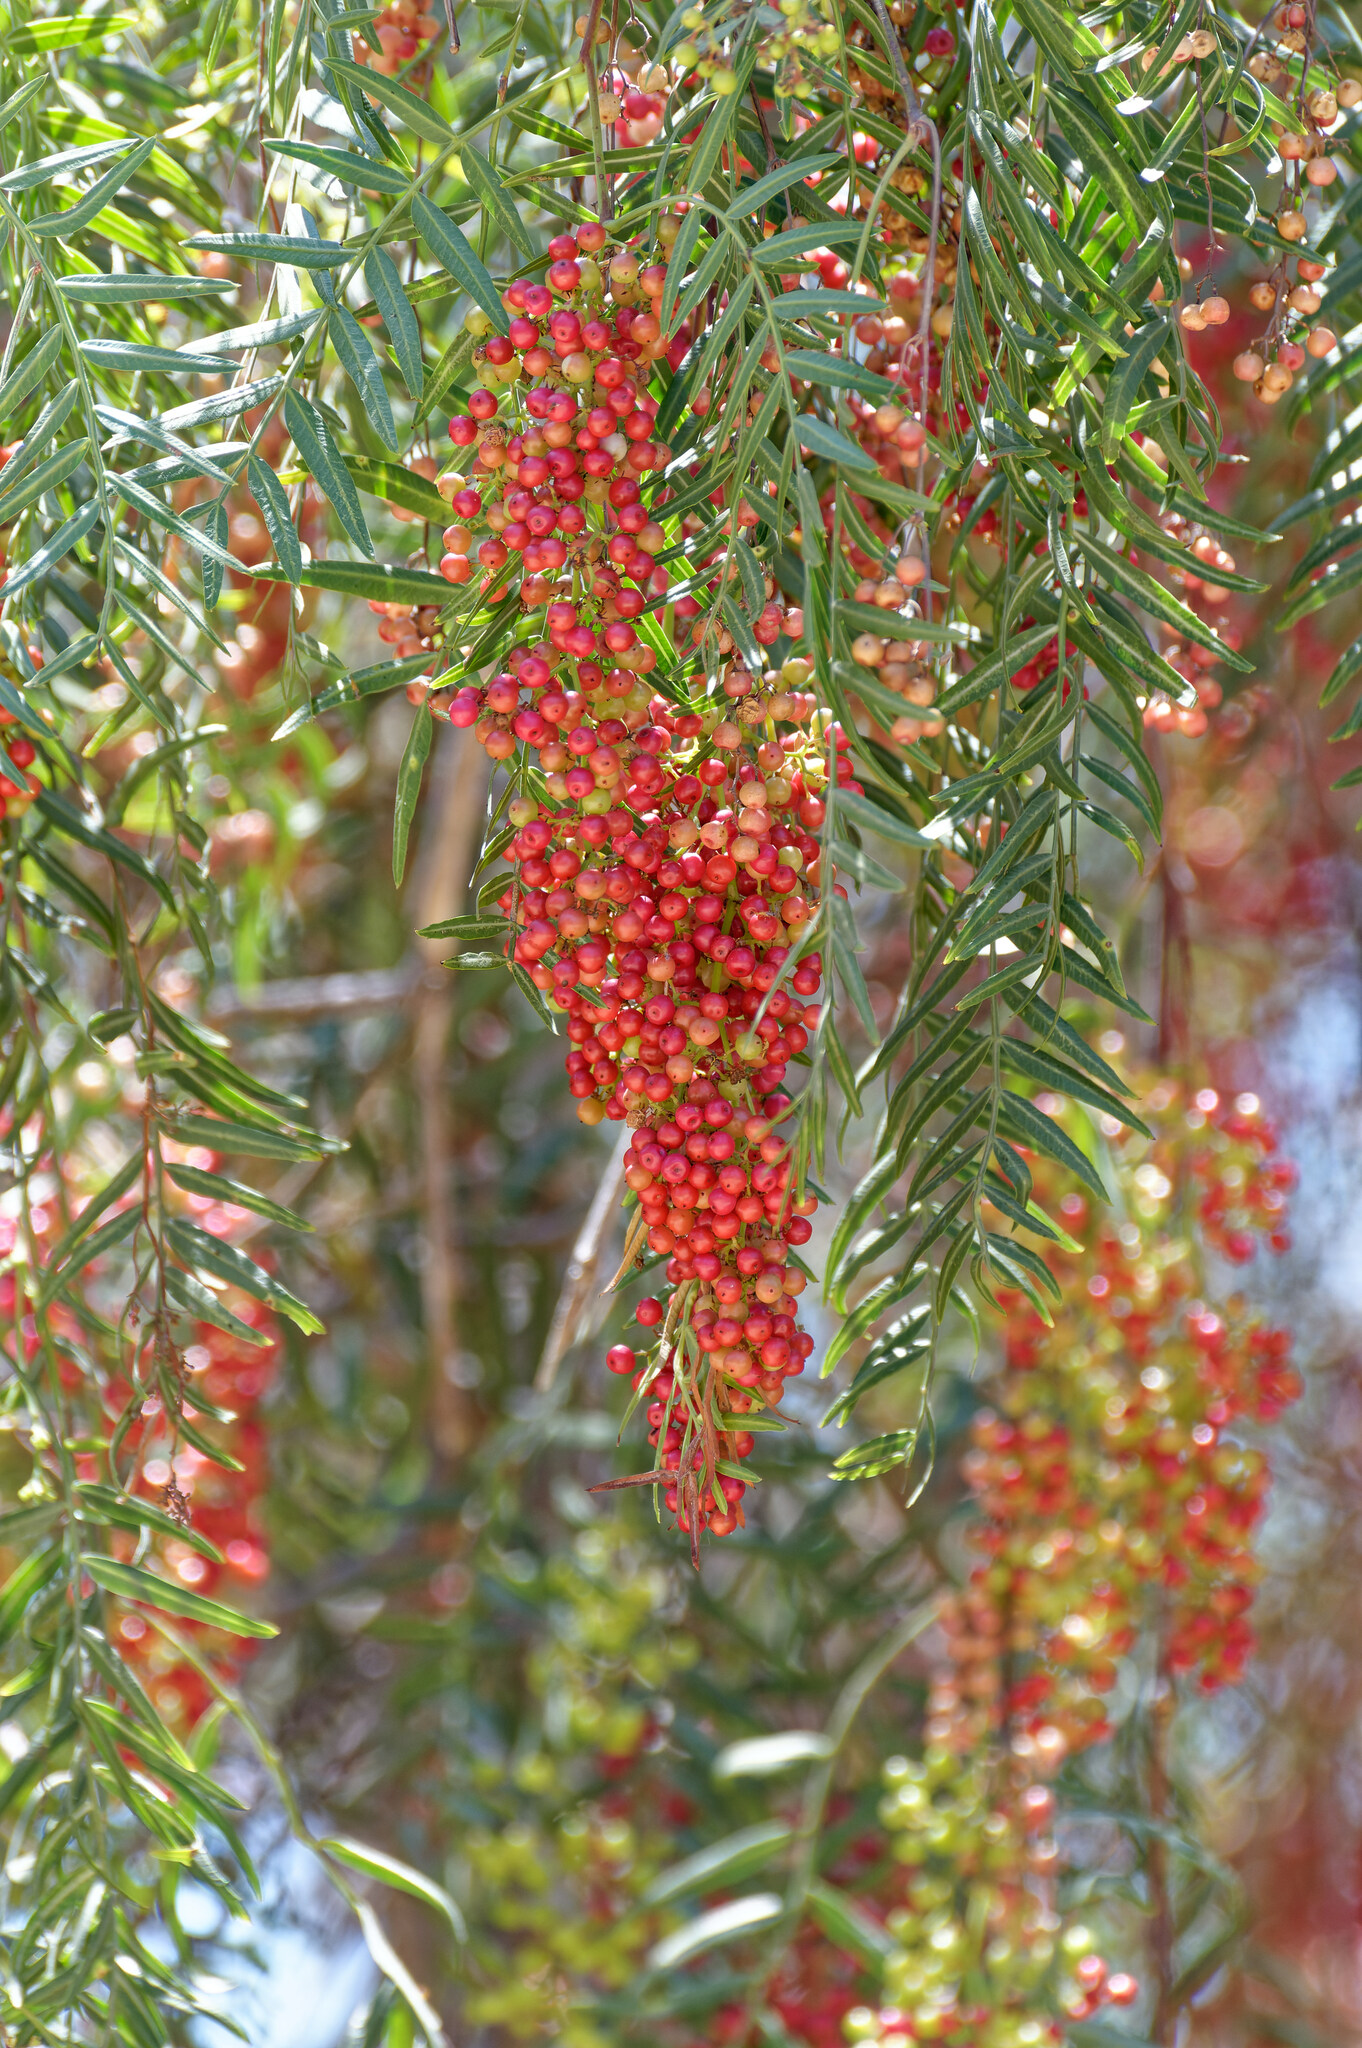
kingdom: Plantae
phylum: Tracheophyta
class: Magnoliopsida
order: Sapindales
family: Anacardiaceae
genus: Schinus
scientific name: Schinus molle
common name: Peruvian peppertree
